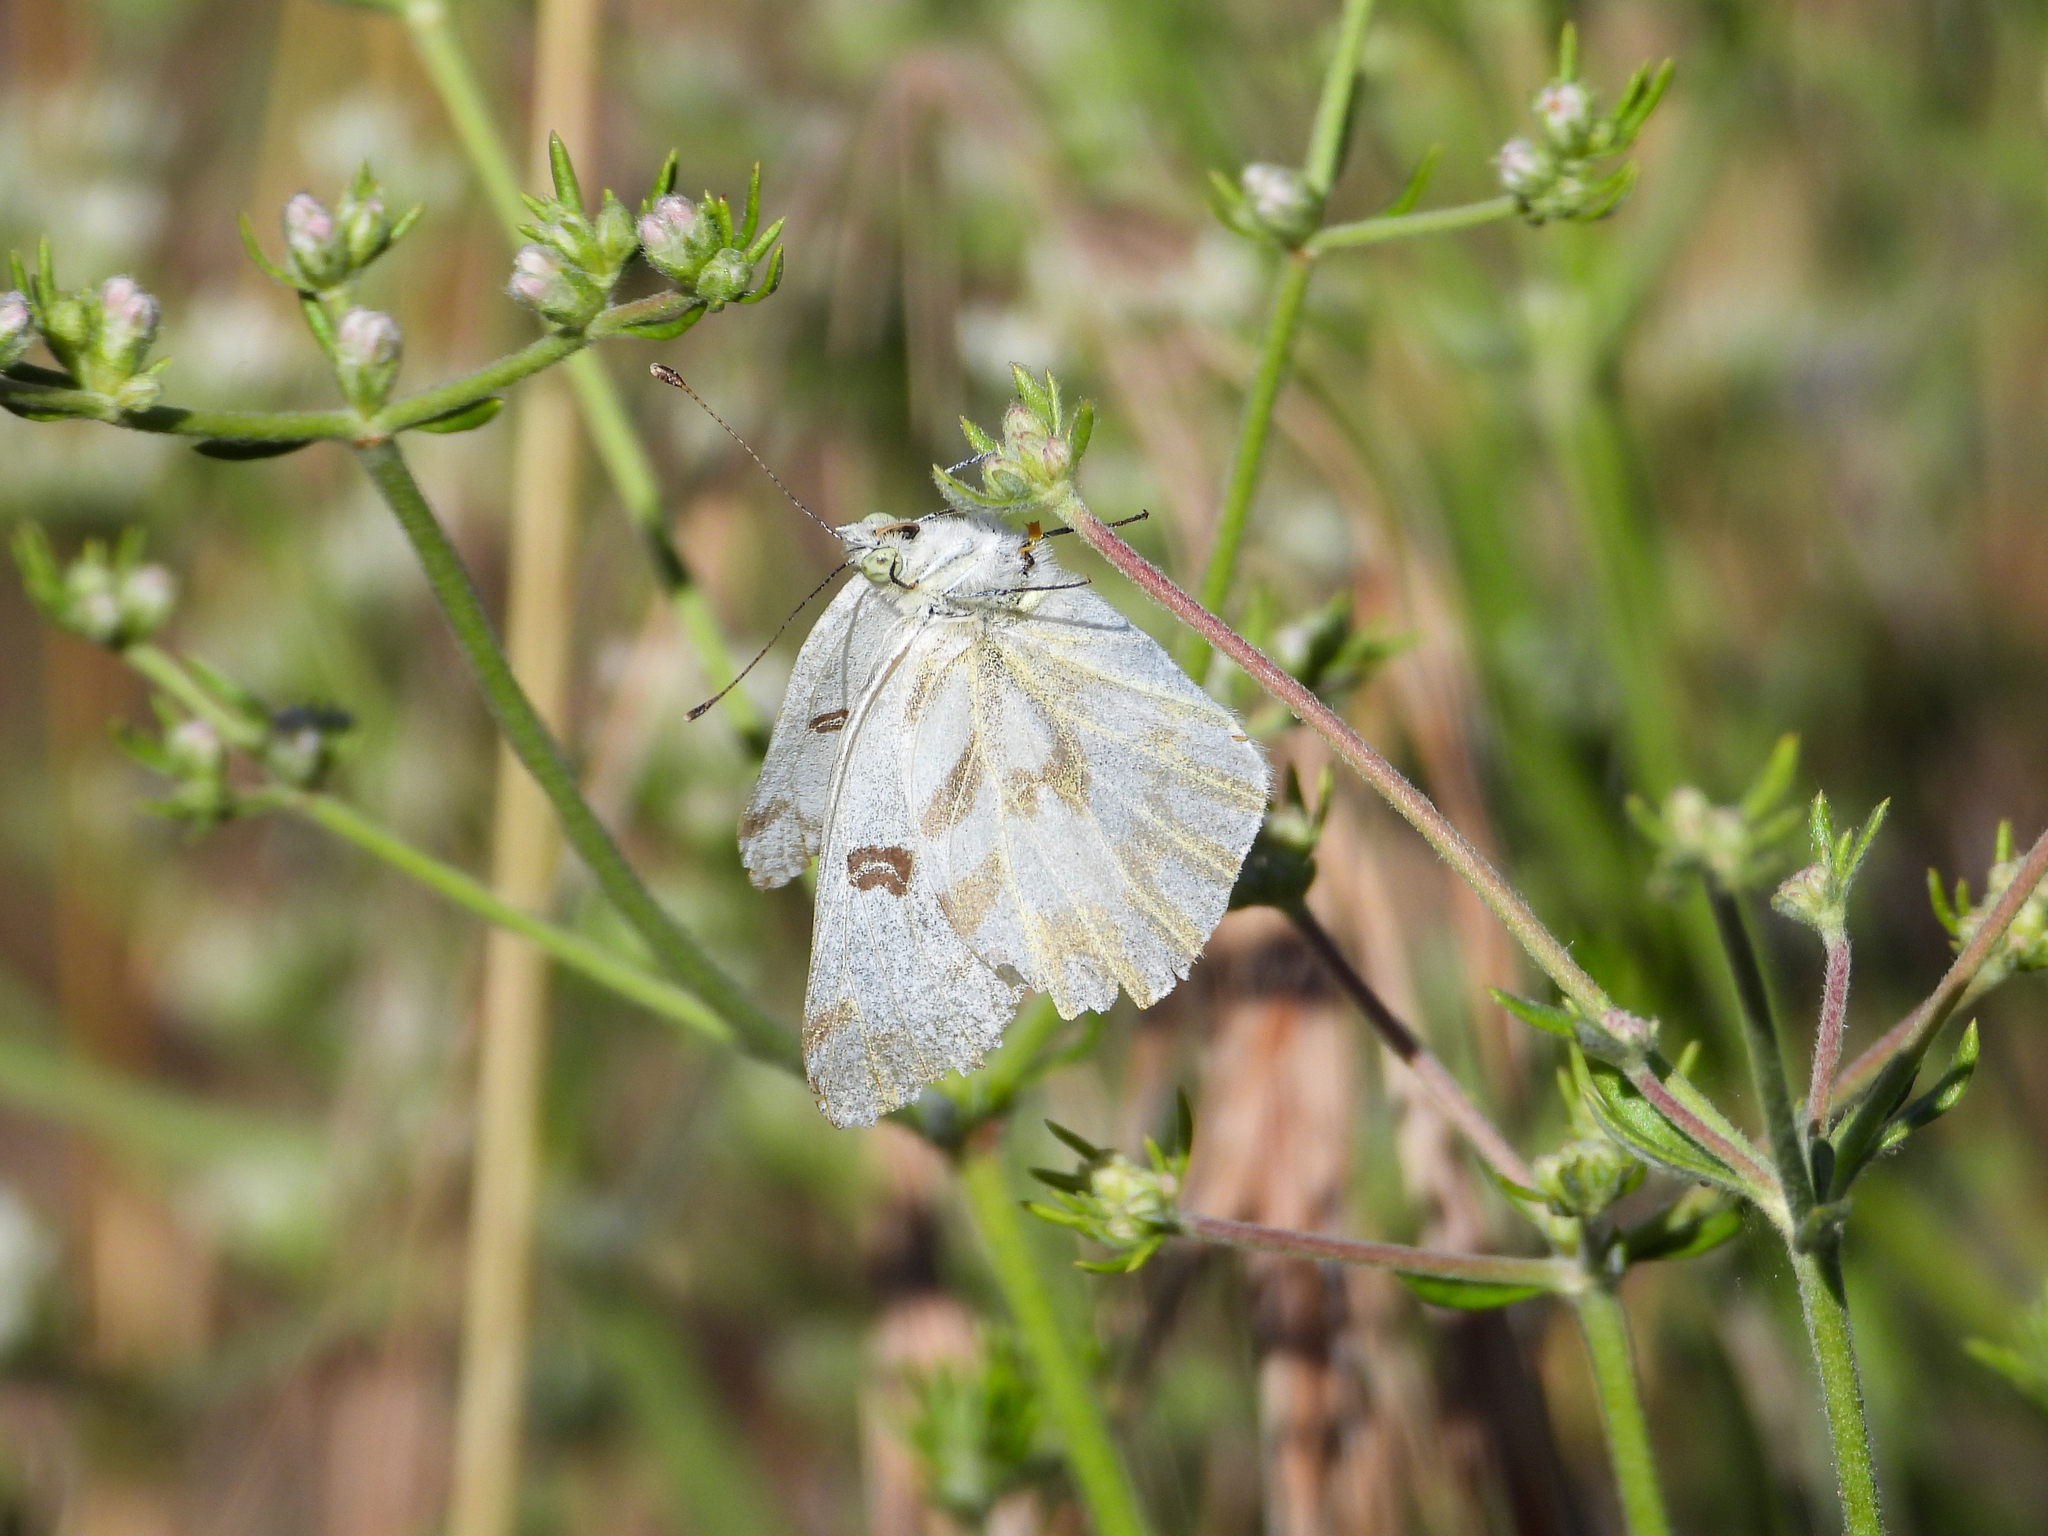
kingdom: Animalia
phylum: Arthropoda
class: Insecta
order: Lepidoptera
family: Pieridae
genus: Pontia
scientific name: Pontia beckerii
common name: Becker's white
